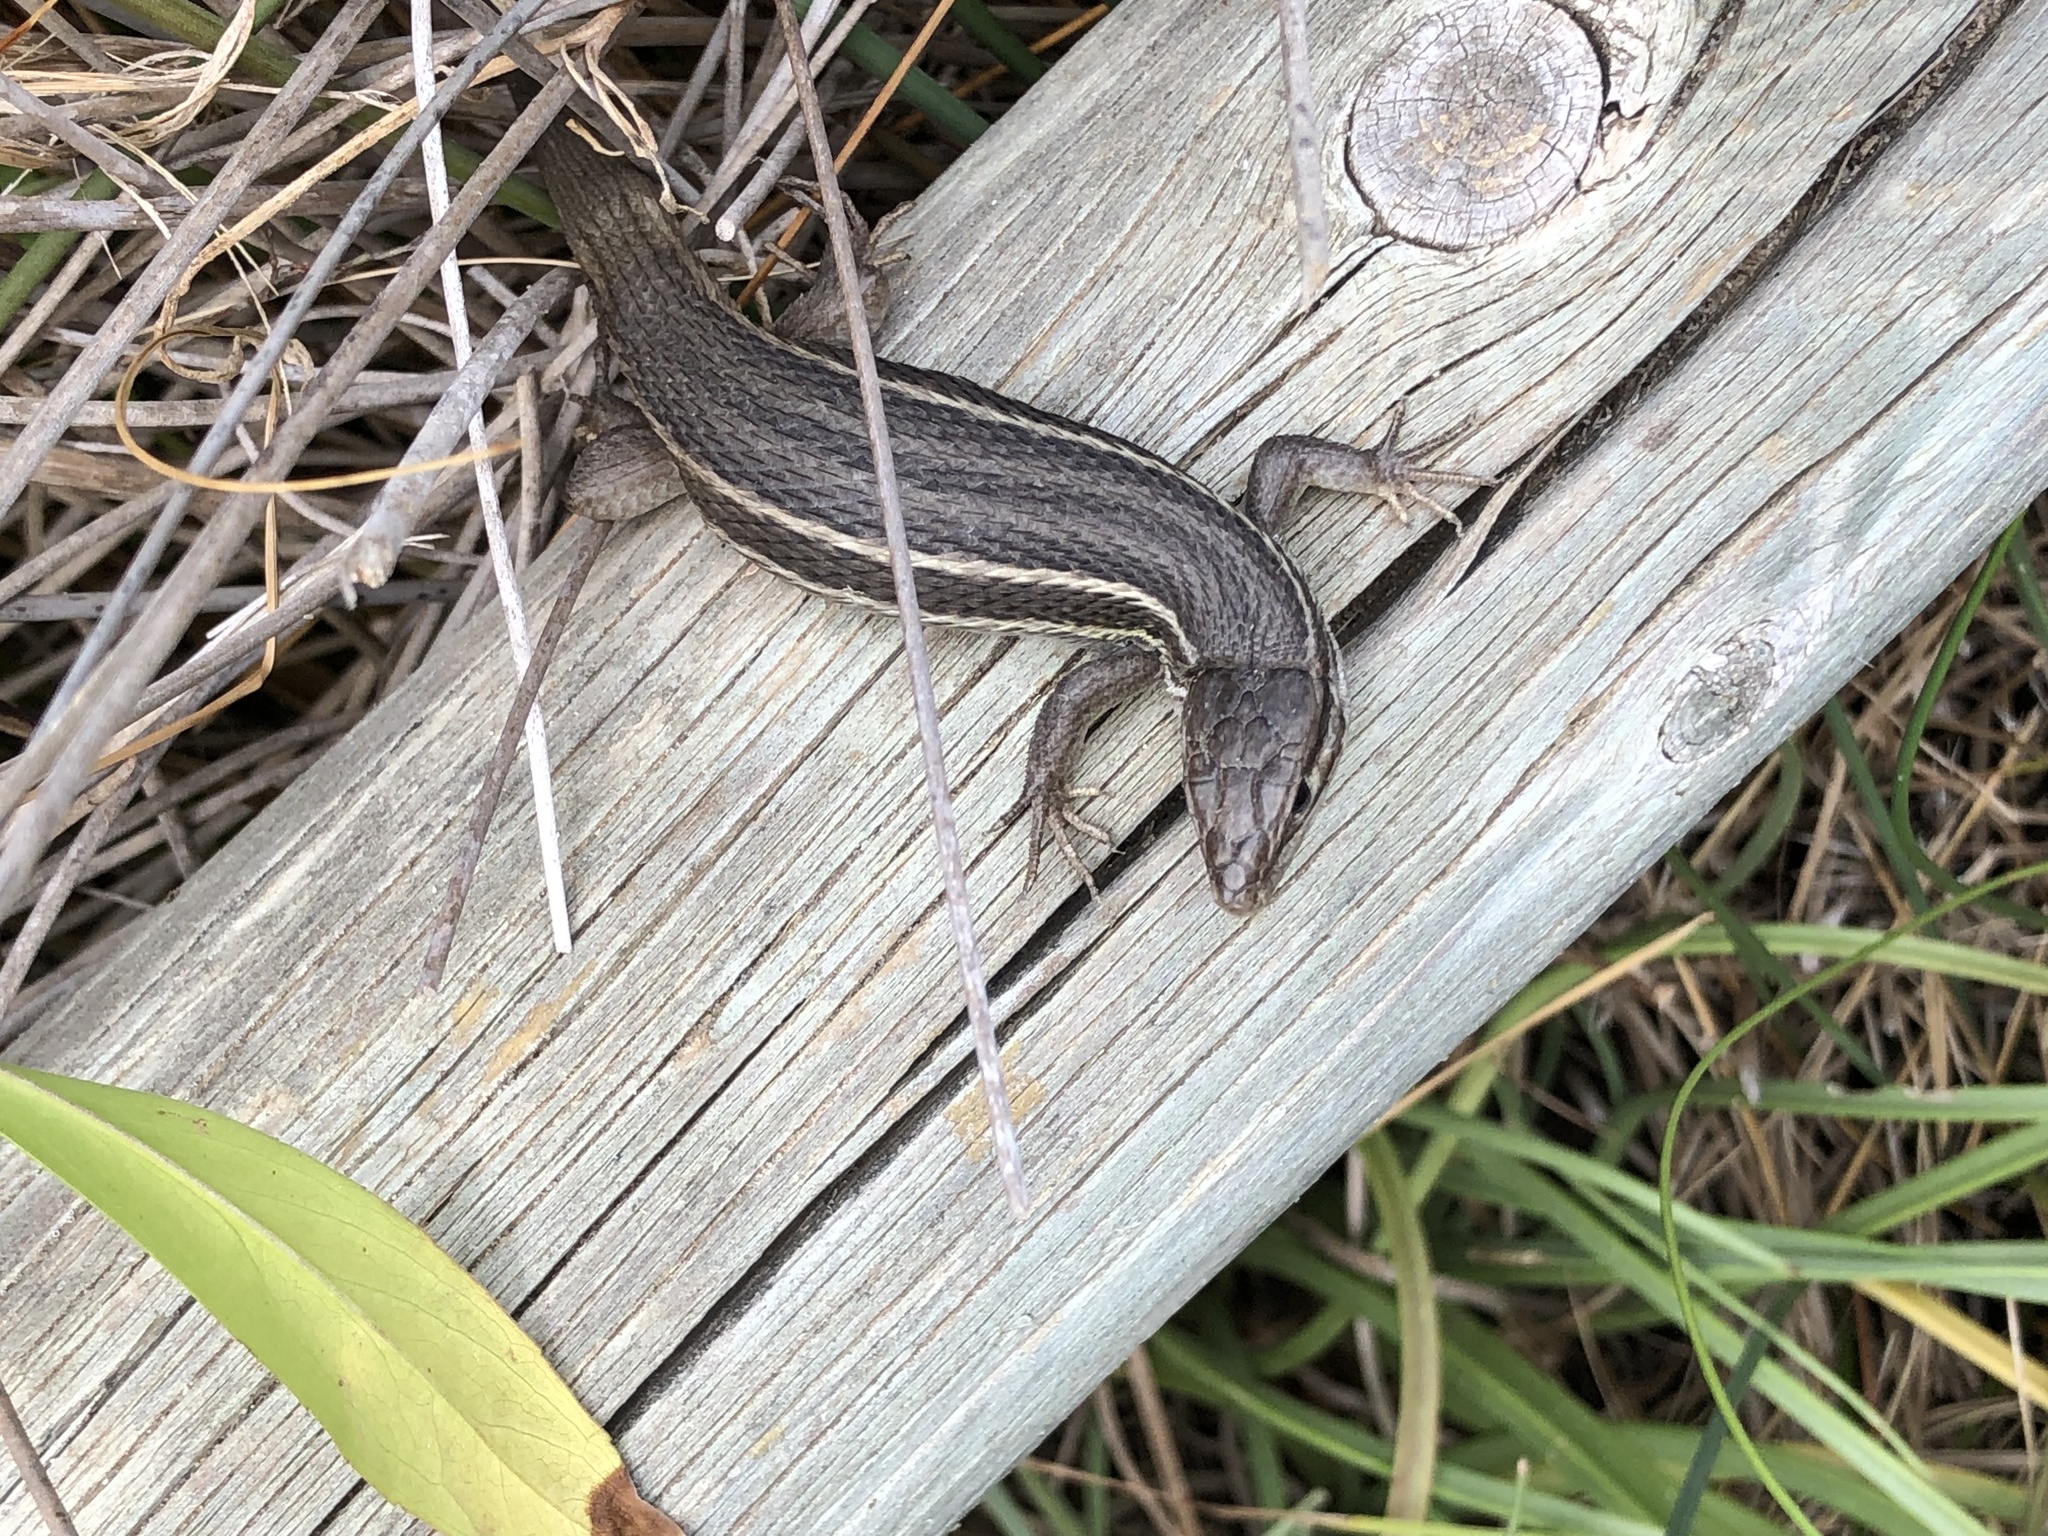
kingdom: Animalia
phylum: Chordata
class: Squamata
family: Lacertidae
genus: Psammodromus
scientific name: Psammodromus algirus
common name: Algerian psammodromus
